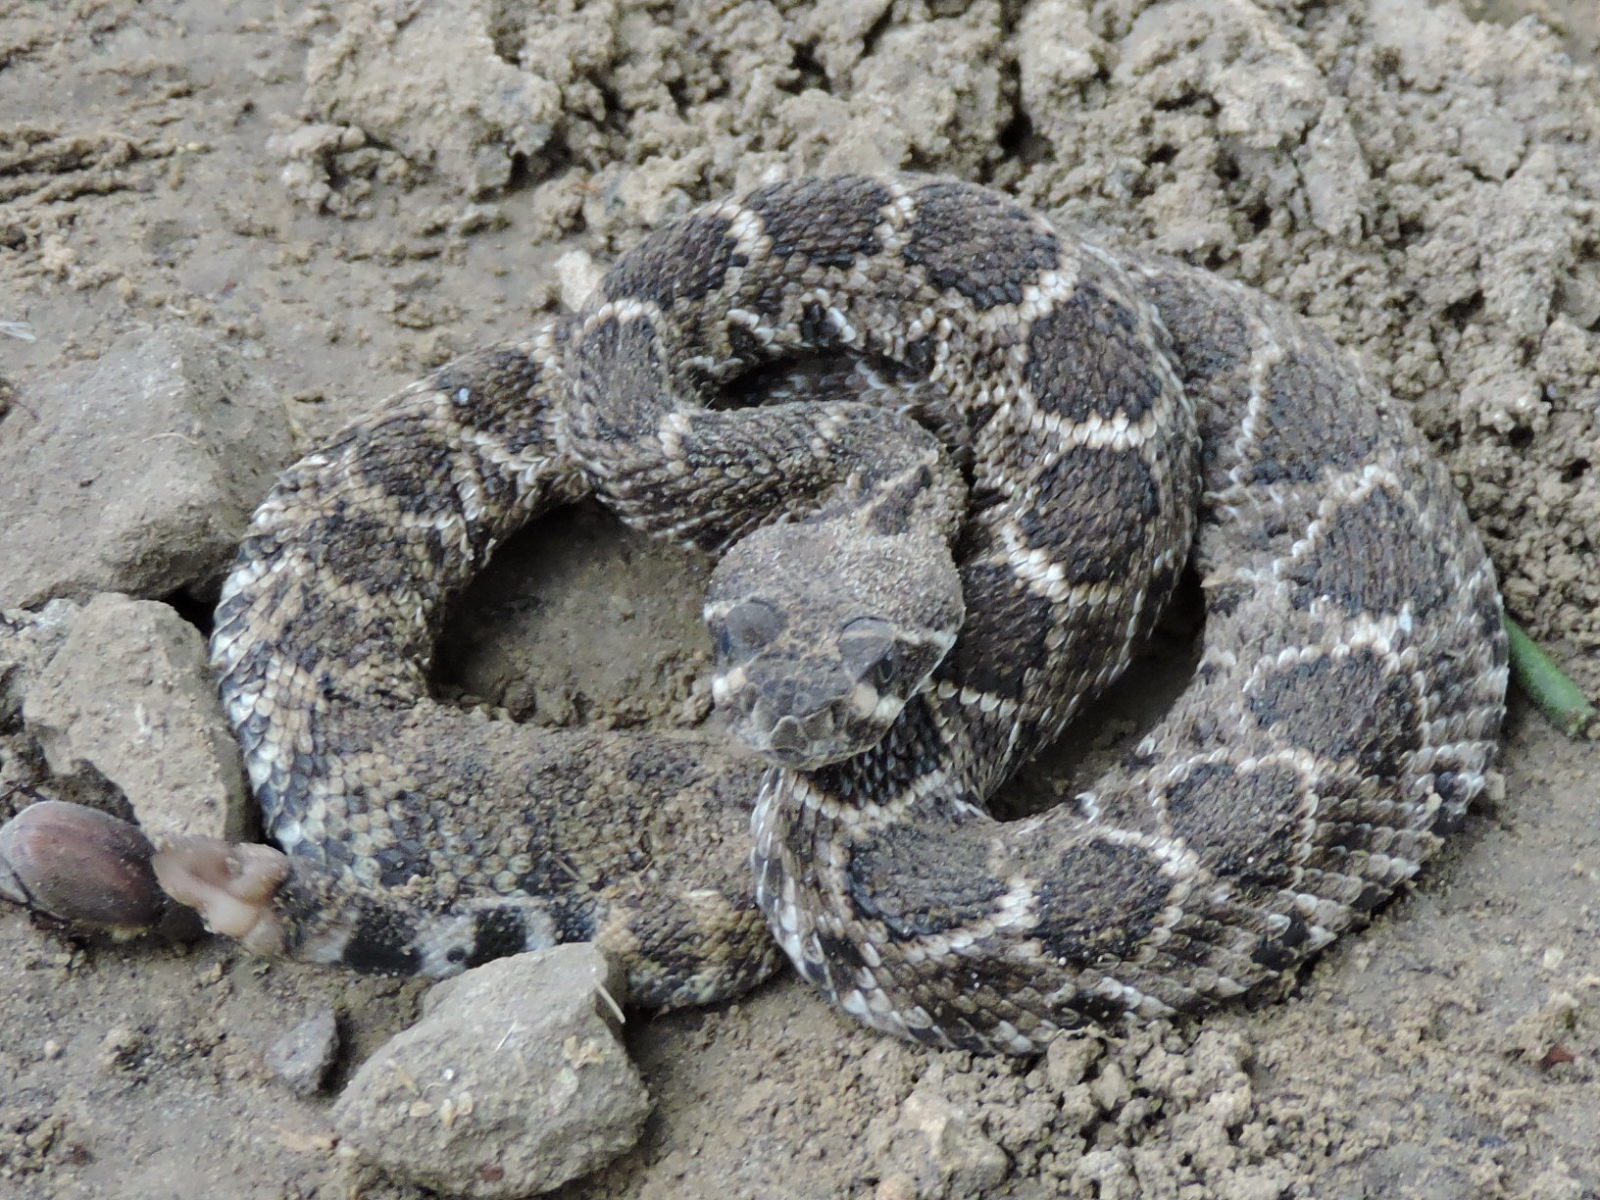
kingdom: Animalia
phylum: Chordata
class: Squamata
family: Viperidae
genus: Crotalus
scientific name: Crotalus atrox
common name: Western diamond-backed rattlesnake
